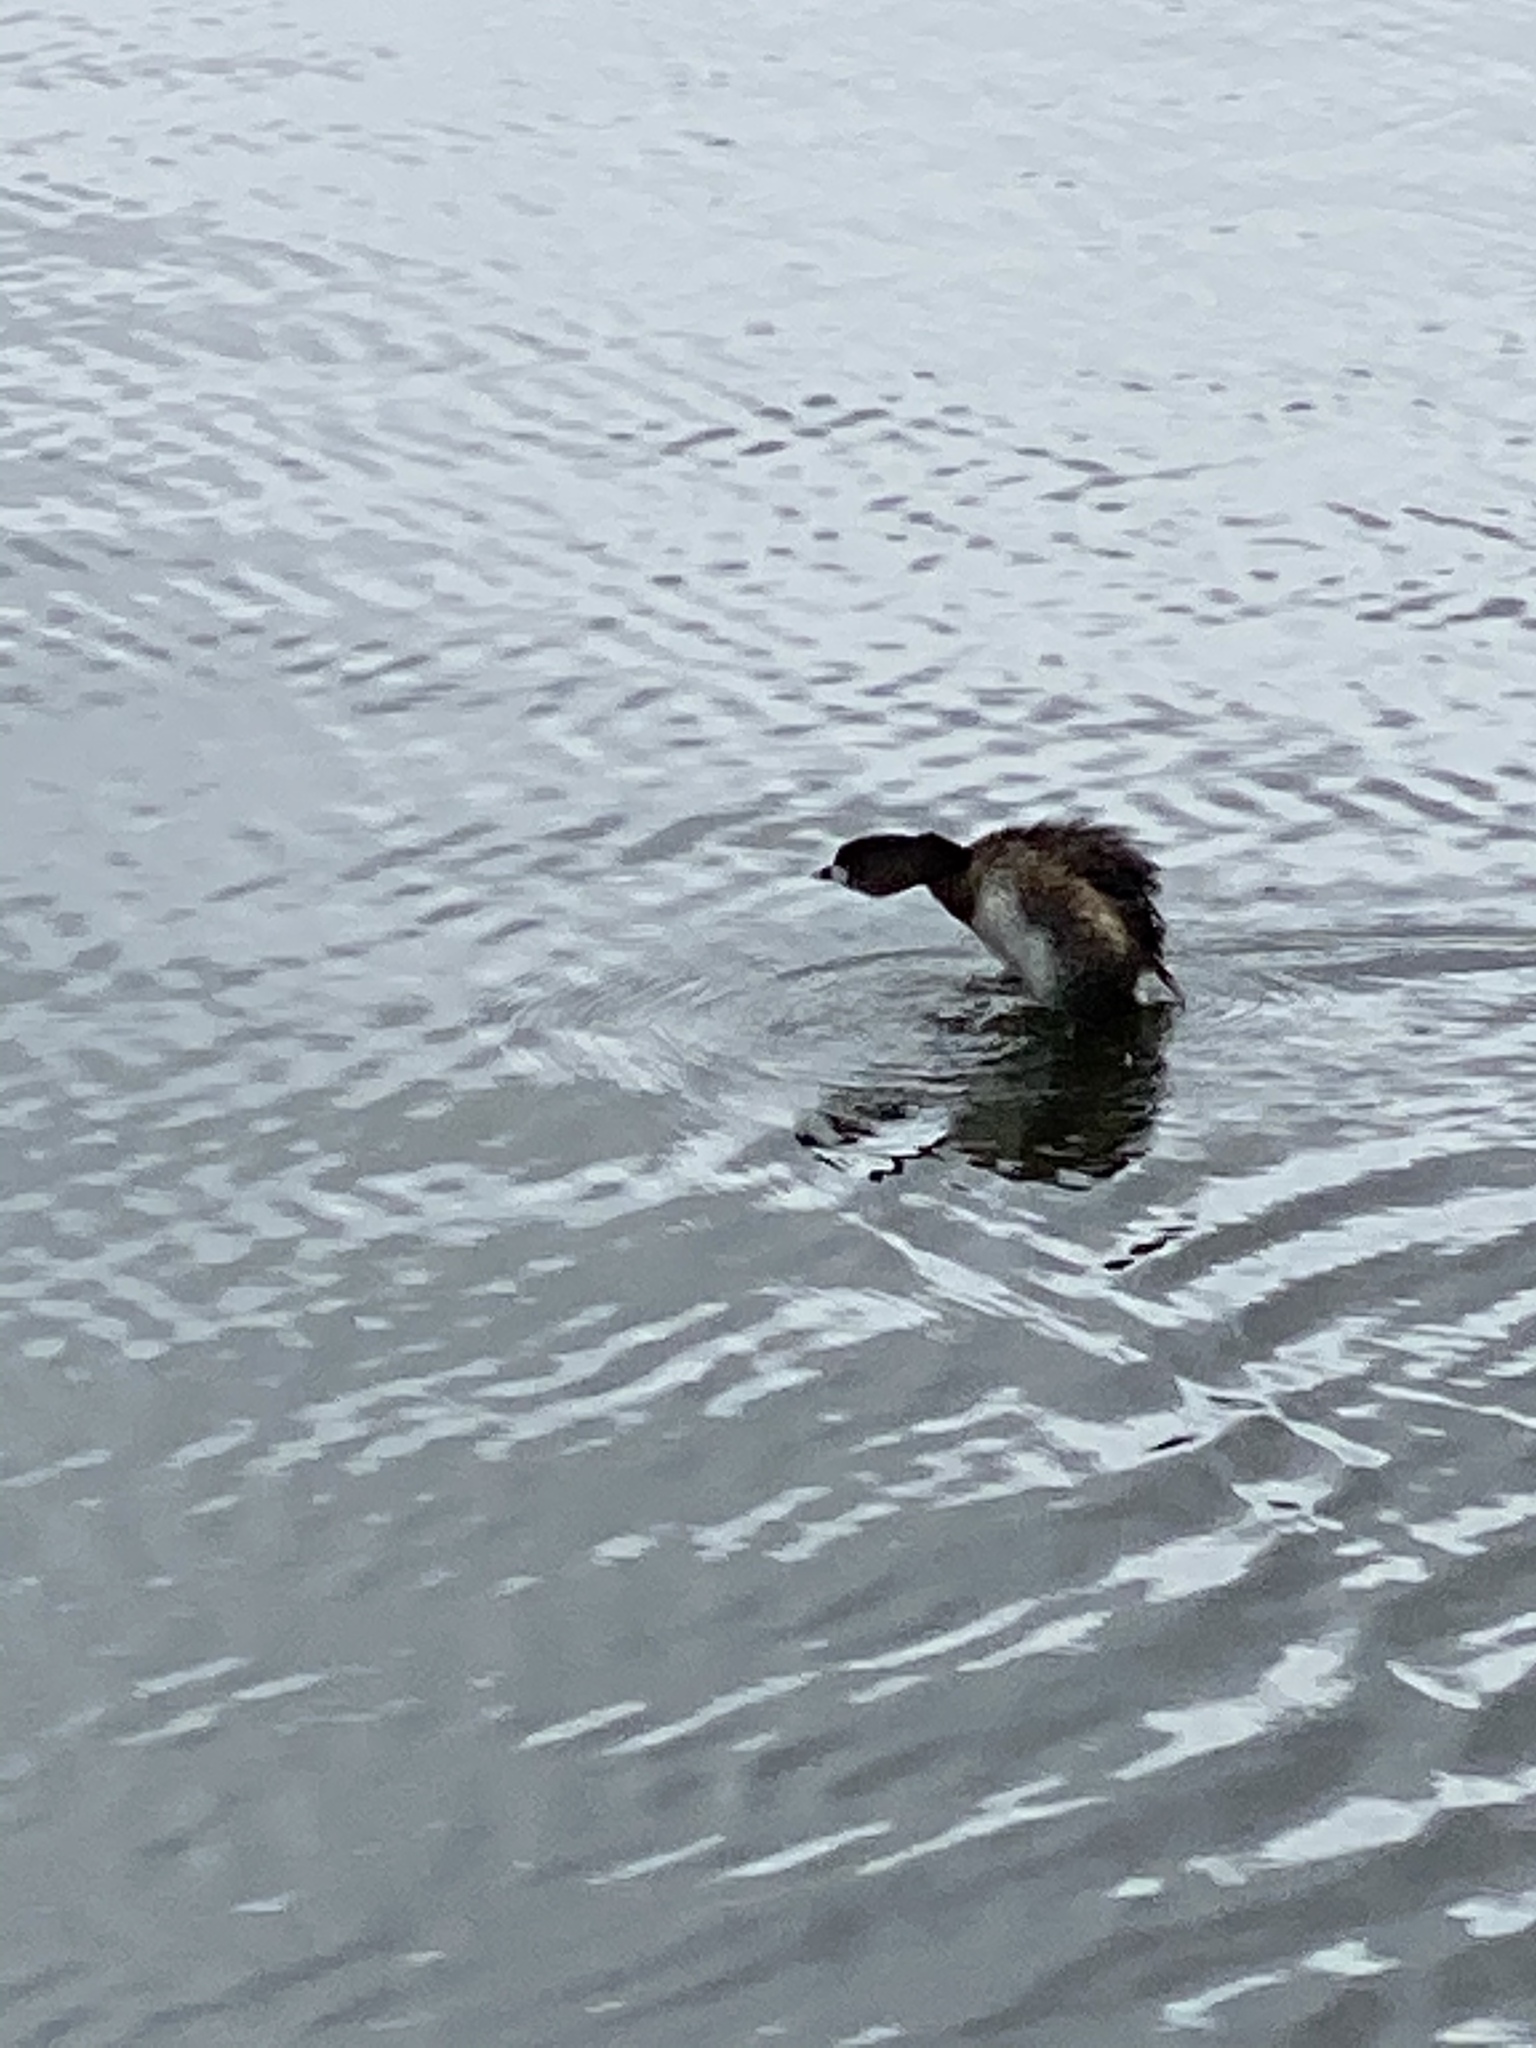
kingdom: Animalia
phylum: Chordata
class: Aves
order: Podicipediformes
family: Podicipedidae
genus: Podilymbus
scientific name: Podilymbus podiceps
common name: Pied-billed grebe
